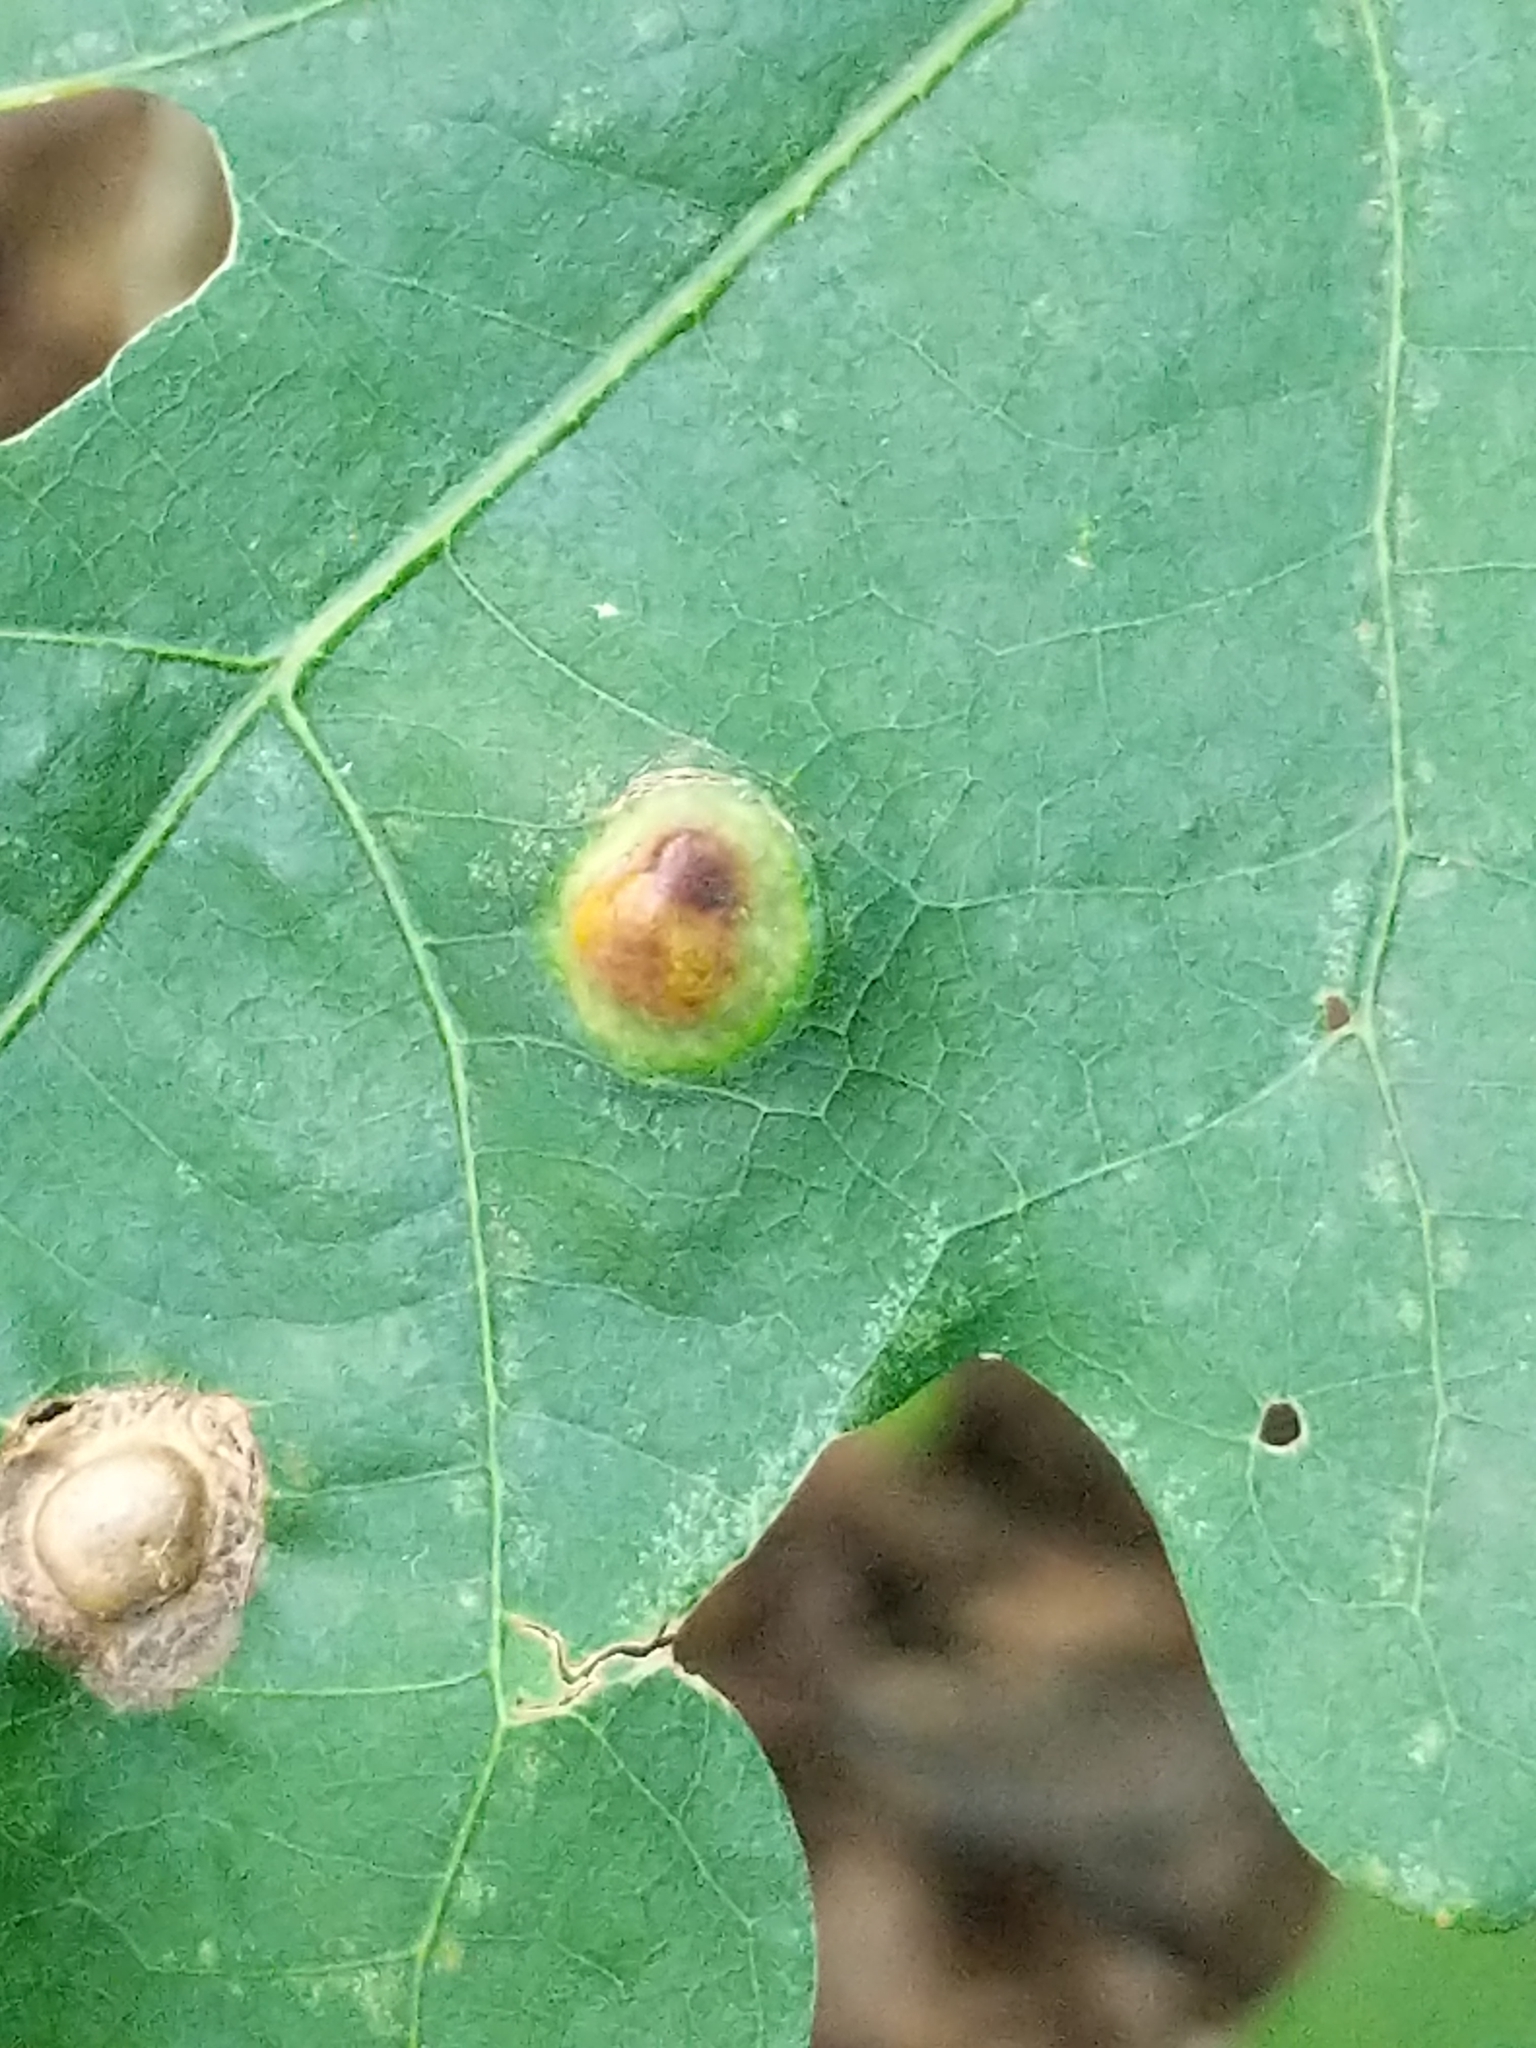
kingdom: Animalia
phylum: Arthropoda
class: Insecta
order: Hymenoptera
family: Cynipidae
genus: Callirhytis
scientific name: Callirhytis
